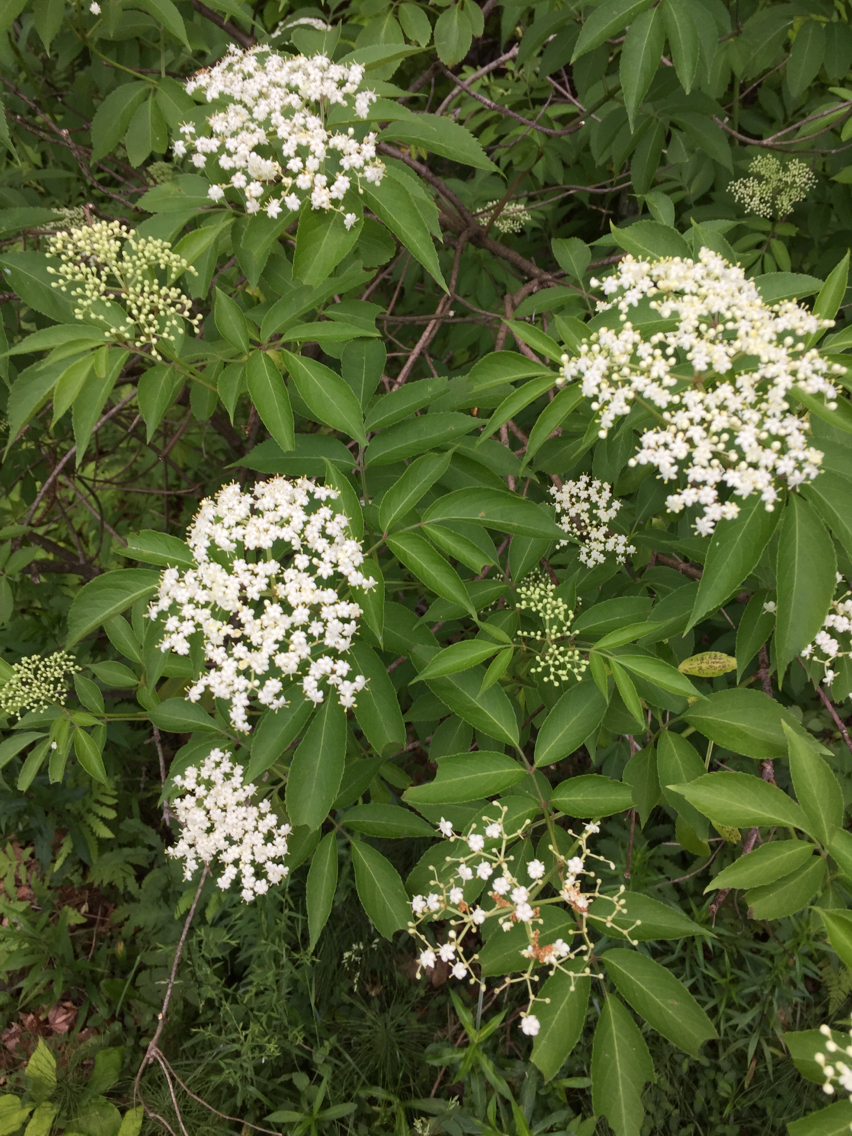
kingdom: Plantae
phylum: Tracheophyta
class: Magnoliopsida
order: Dipsacales
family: Viburnaceae
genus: Sambucus
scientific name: Sambucus canadensis
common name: American elder
